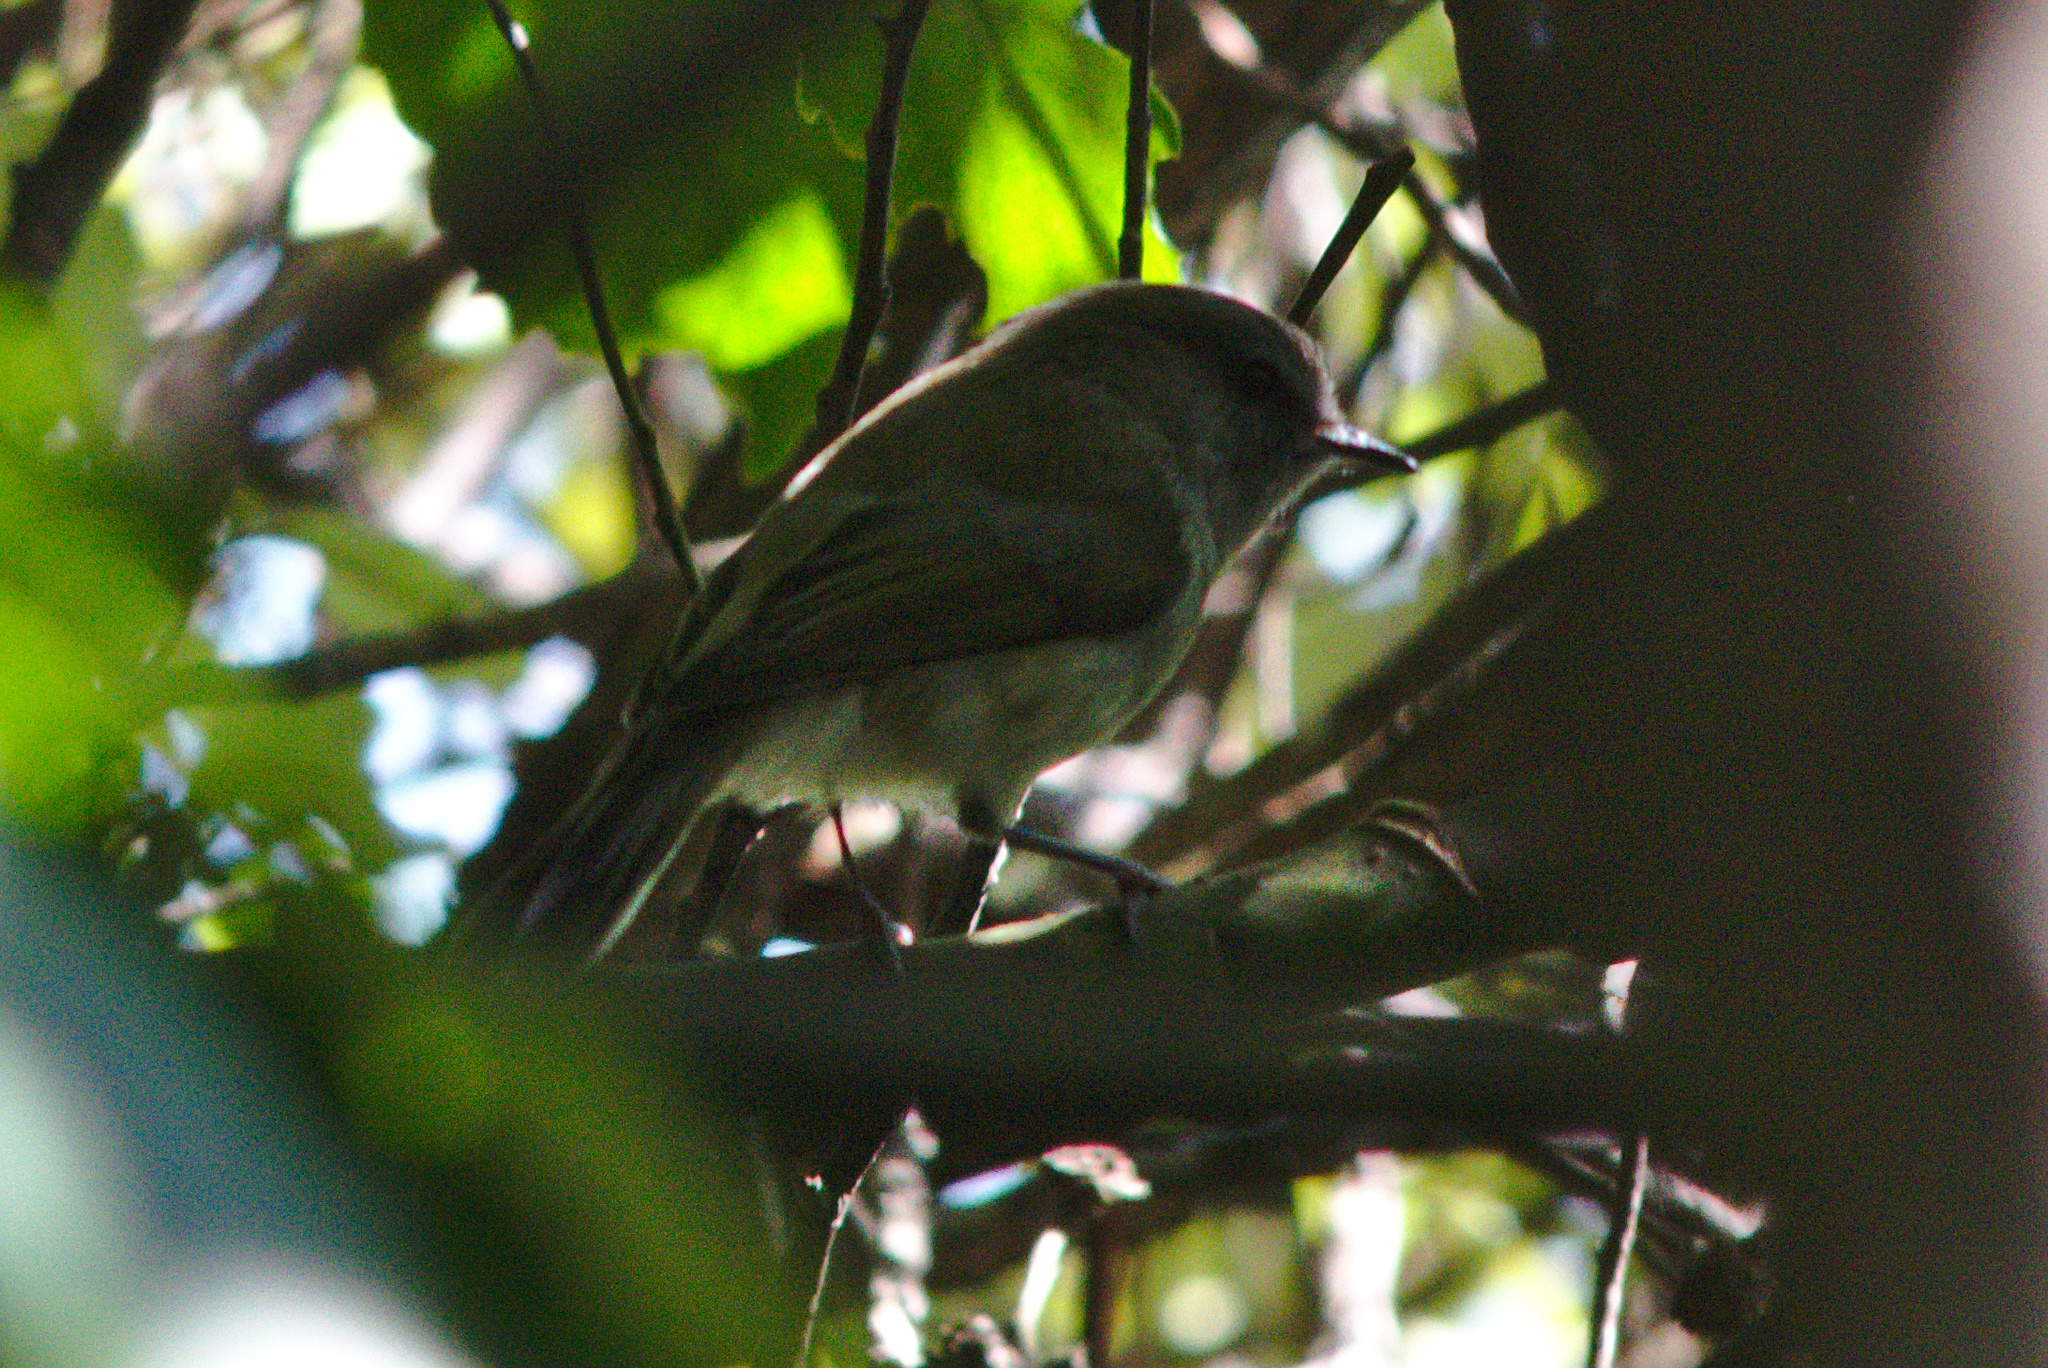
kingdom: Animalia
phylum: Chordata
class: Aves
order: Passeriformes
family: Acanthizidae
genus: Gerygone
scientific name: Gerygone igata
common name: Grey gerygone
